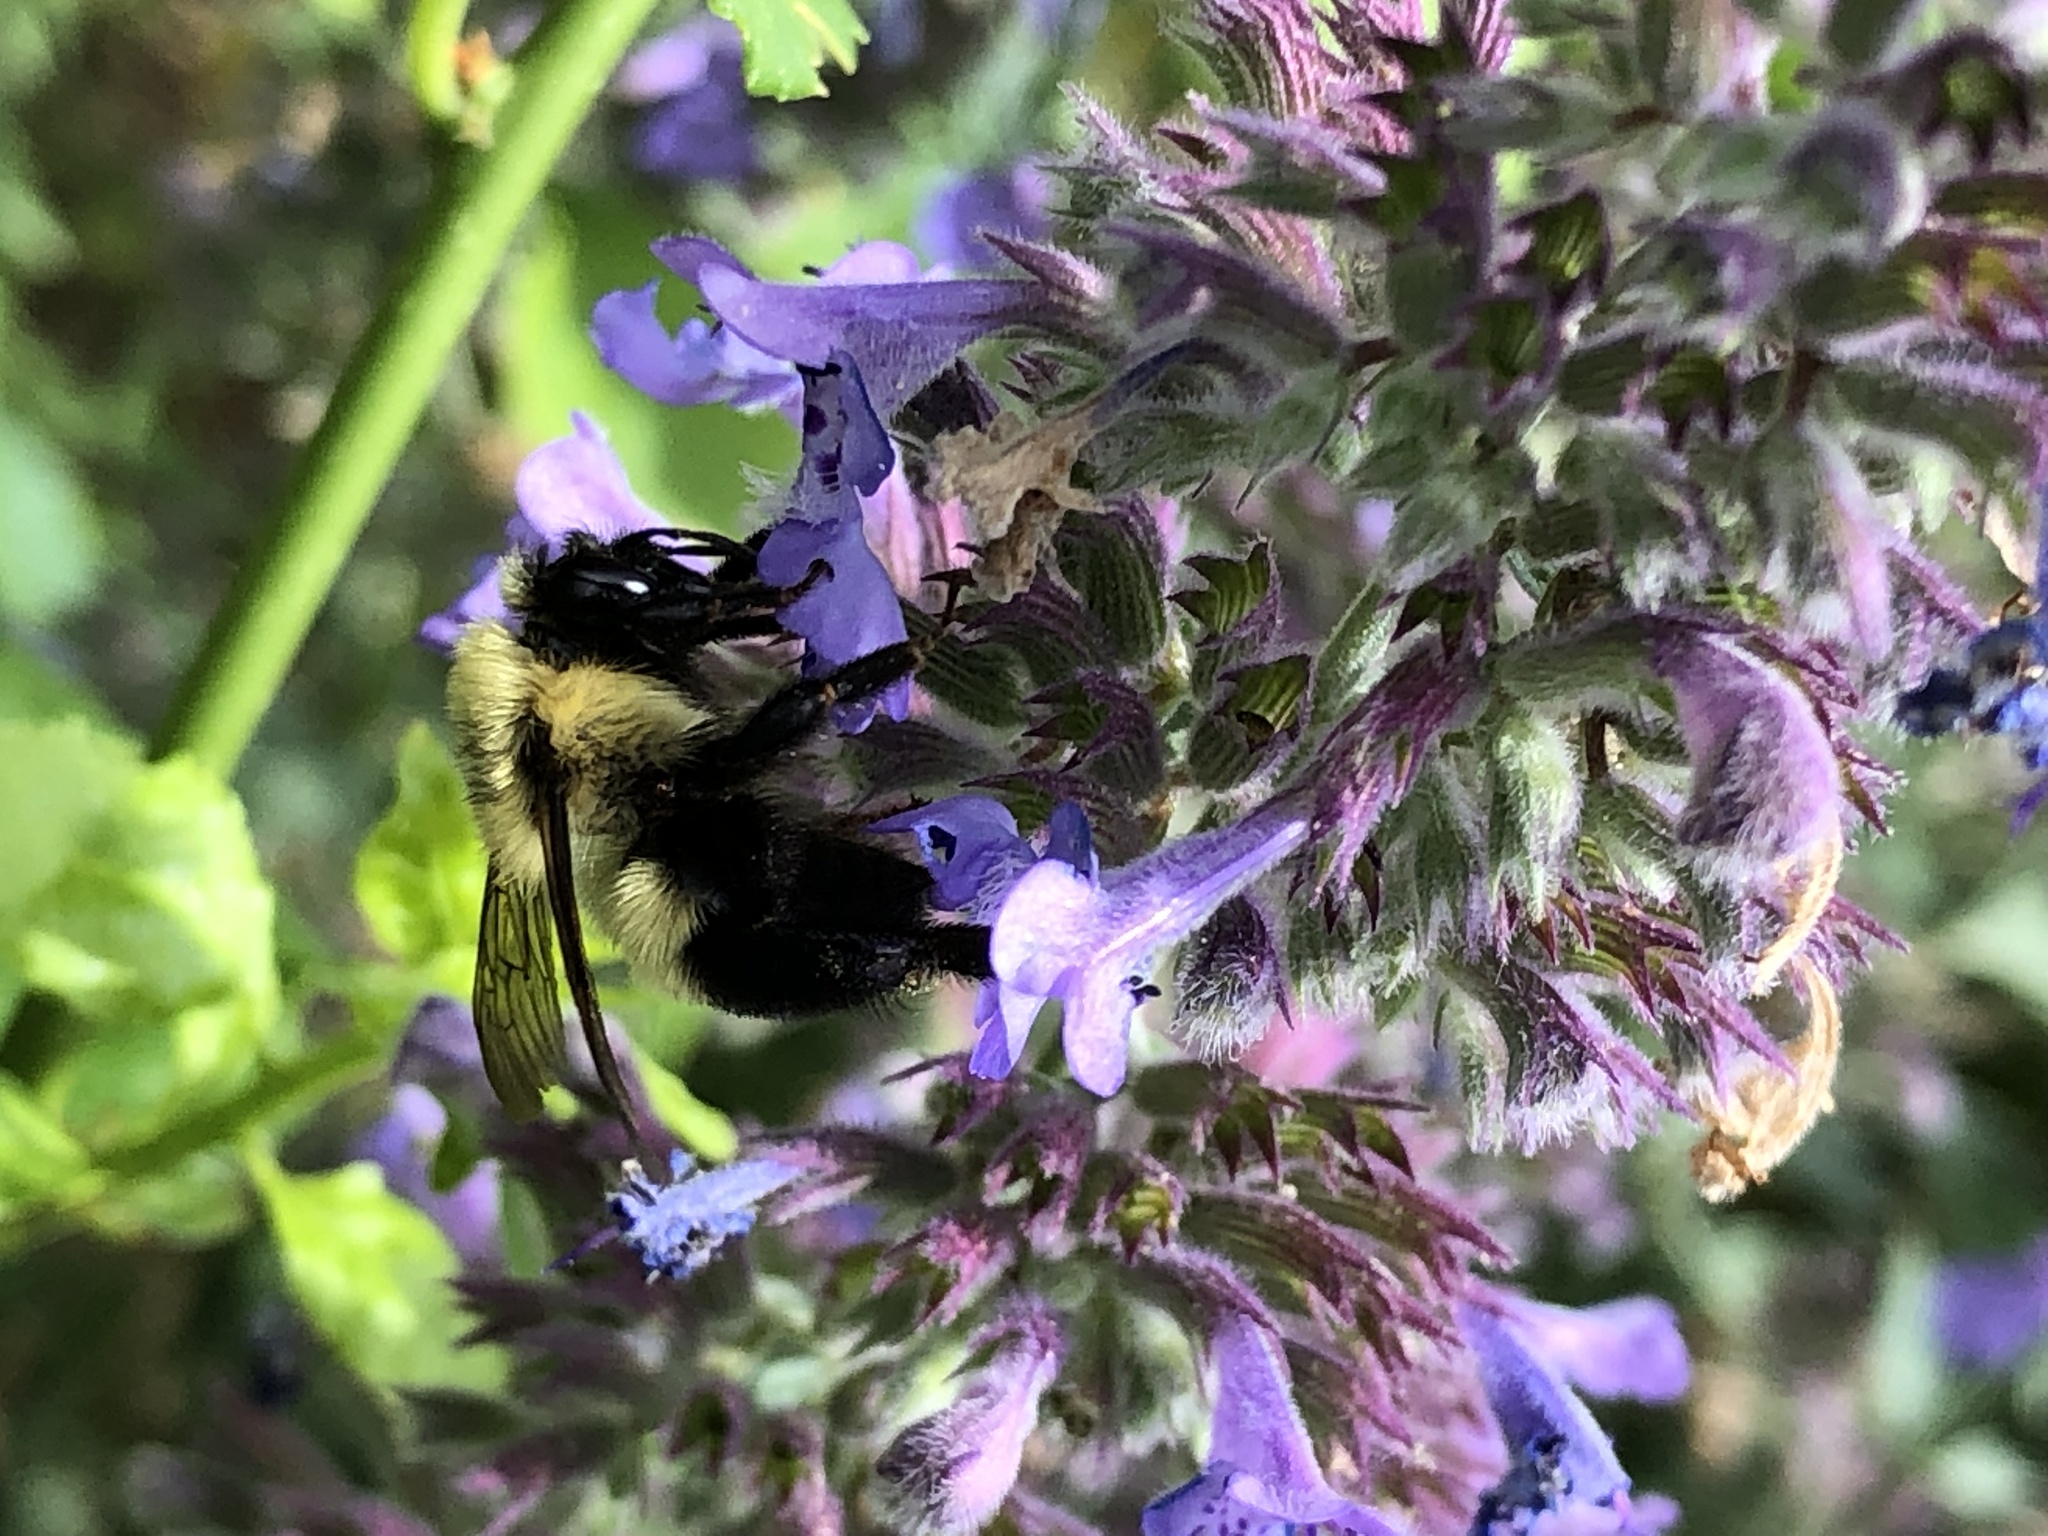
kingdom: Animalia
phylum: Arthropoda
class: Insecta
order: Hymenoptera
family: Apidae
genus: Bombus
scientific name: Bombus bimaculatus
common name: Two-spotted bumble bee
